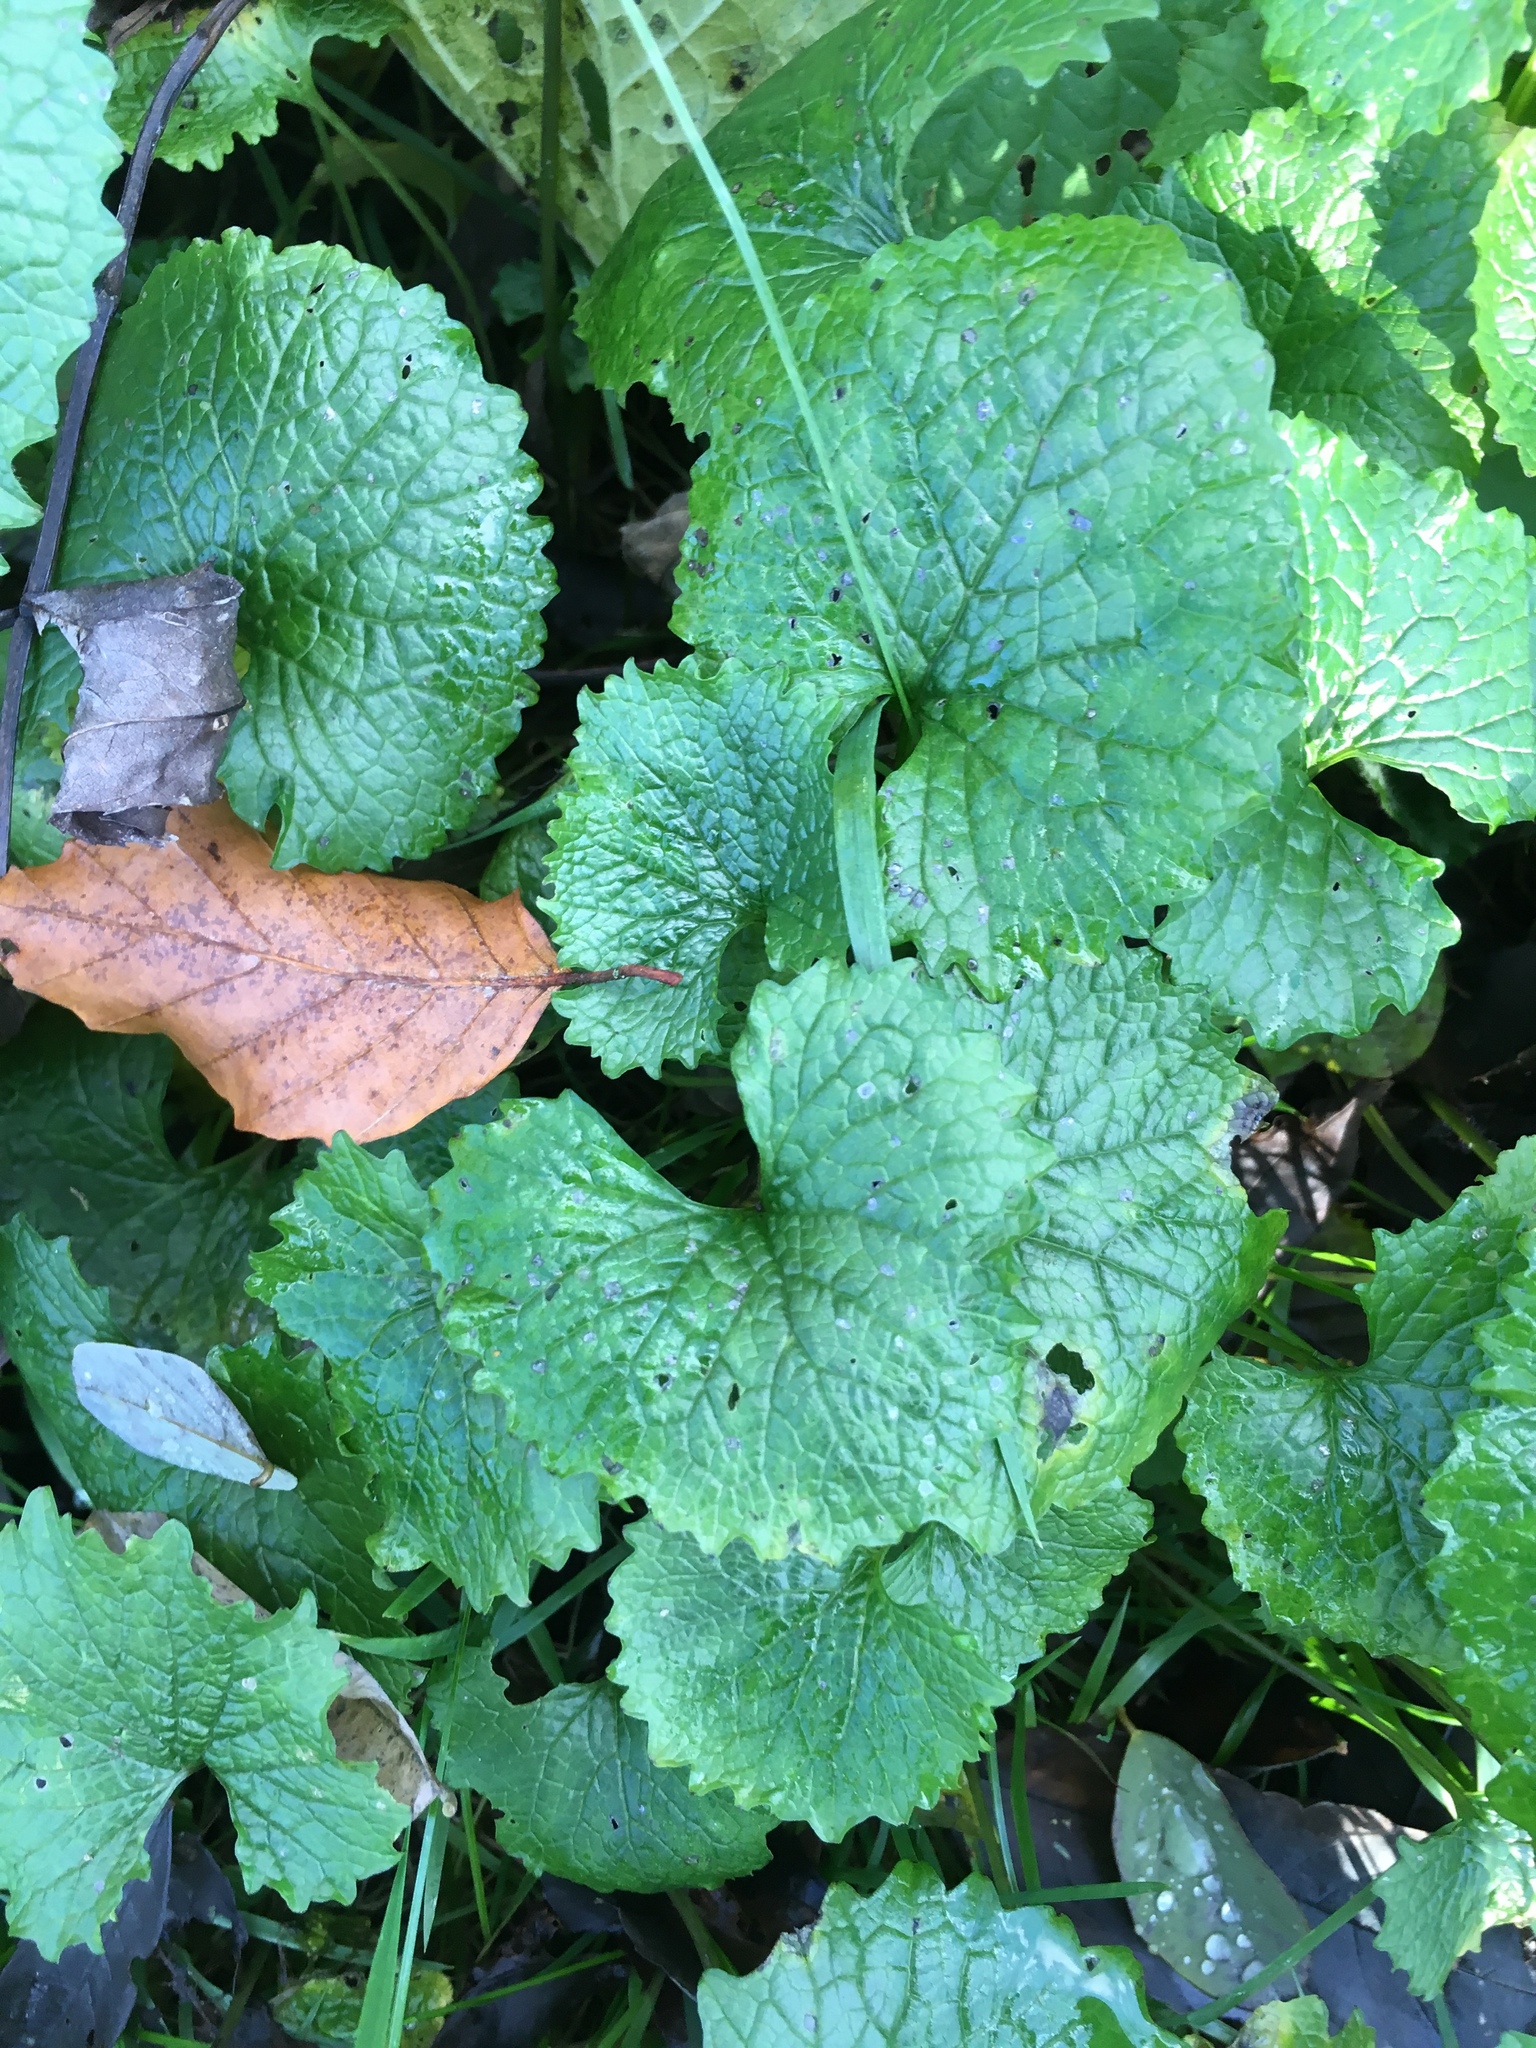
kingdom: Plantae
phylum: Tracheophyta
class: Magnoliopsida
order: Brassicales
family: Brassicaceae
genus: Alliaria
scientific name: Alliaria petiolata
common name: Garlic mustard
